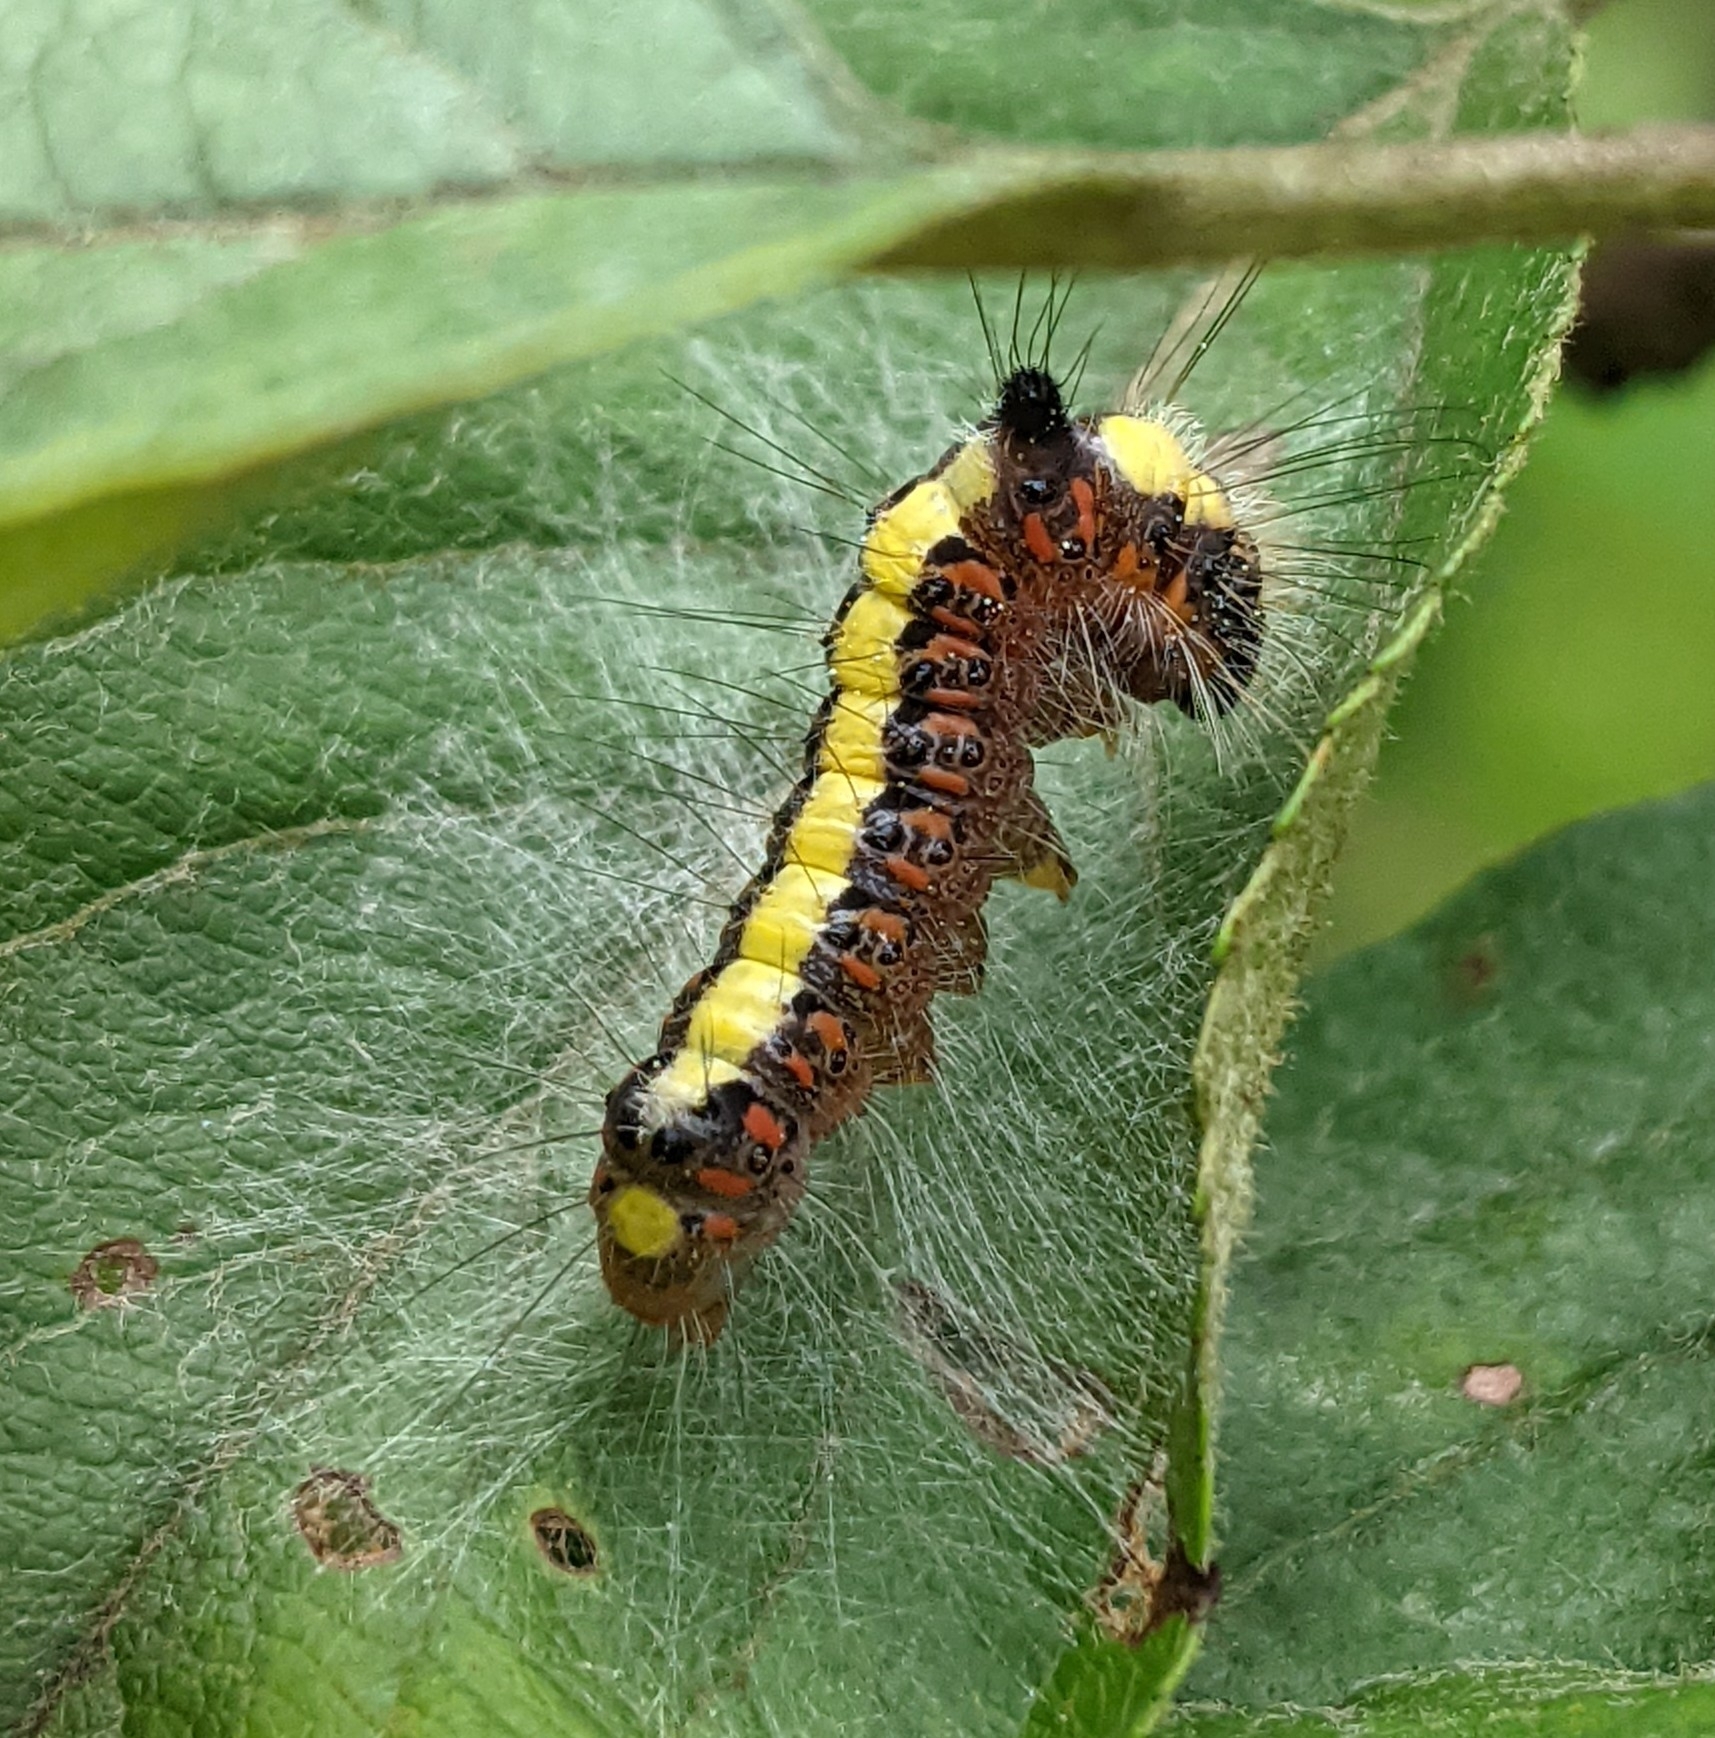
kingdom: Animalia
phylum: Arthropoda
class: Insecta
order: Lepidoptera
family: Noctuidae
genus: Acronicta
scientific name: Acronicta psi
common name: Grey dagger
